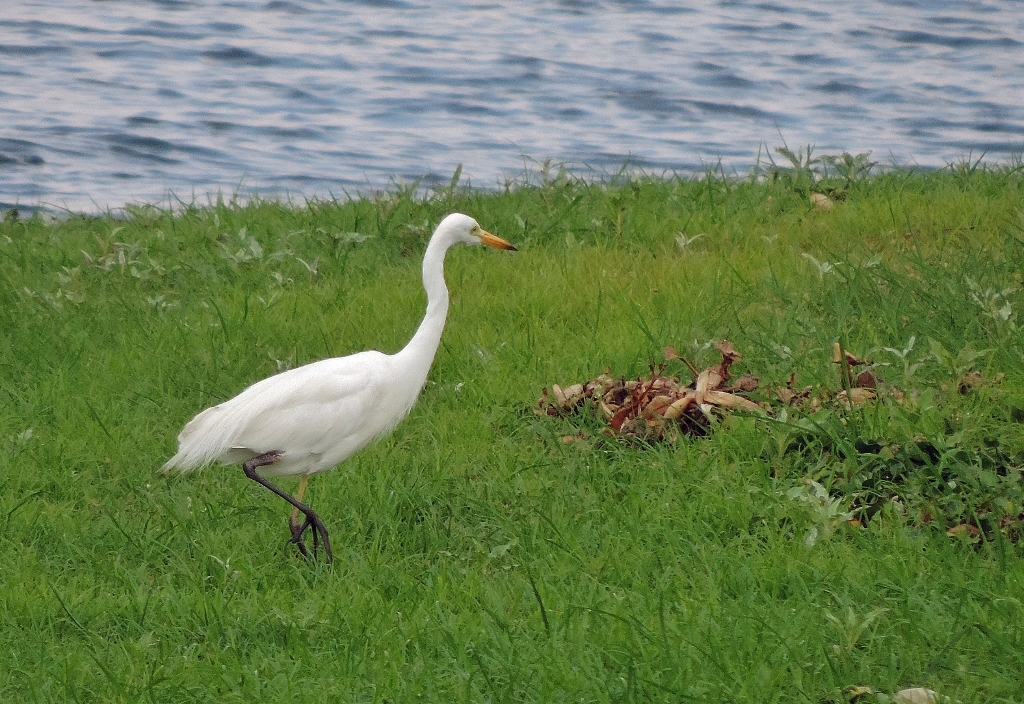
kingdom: Animalia
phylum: Chordata
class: Aves
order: Pelecaniformes
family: Ardeidae
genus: Egretta
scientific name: Egretta intermedia
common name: Intermediate egret
